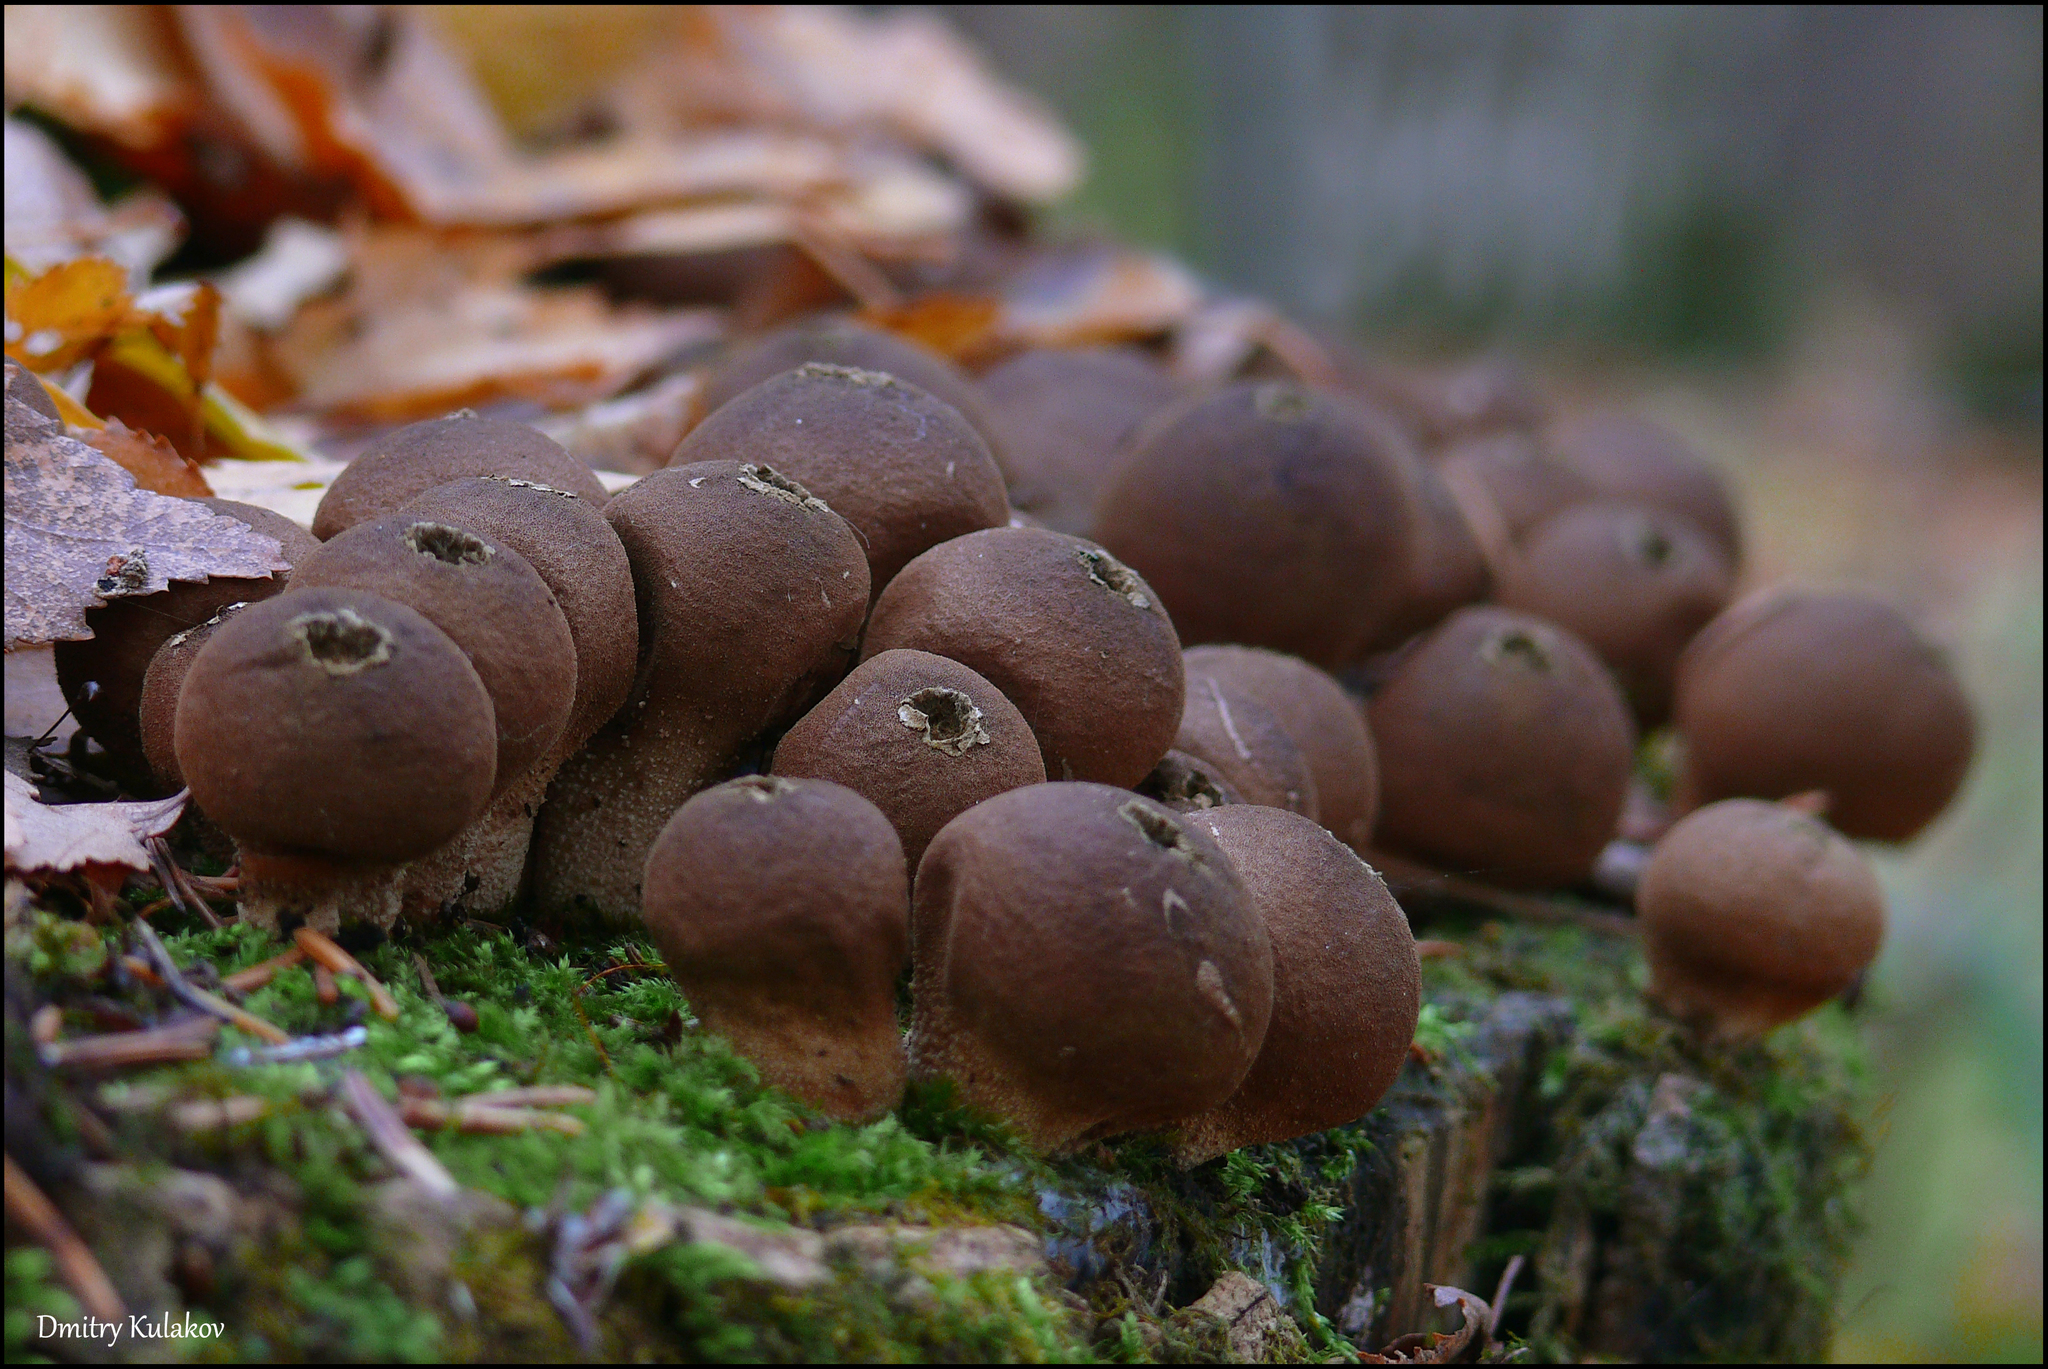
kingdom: Fungi
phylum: Basidiomycota
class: Agaricomycetes
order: Agaricales
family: Lycoperdaceae
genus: Apioperdon
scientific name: Apioperdon pyriforme
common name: Pear-shaped puffball
